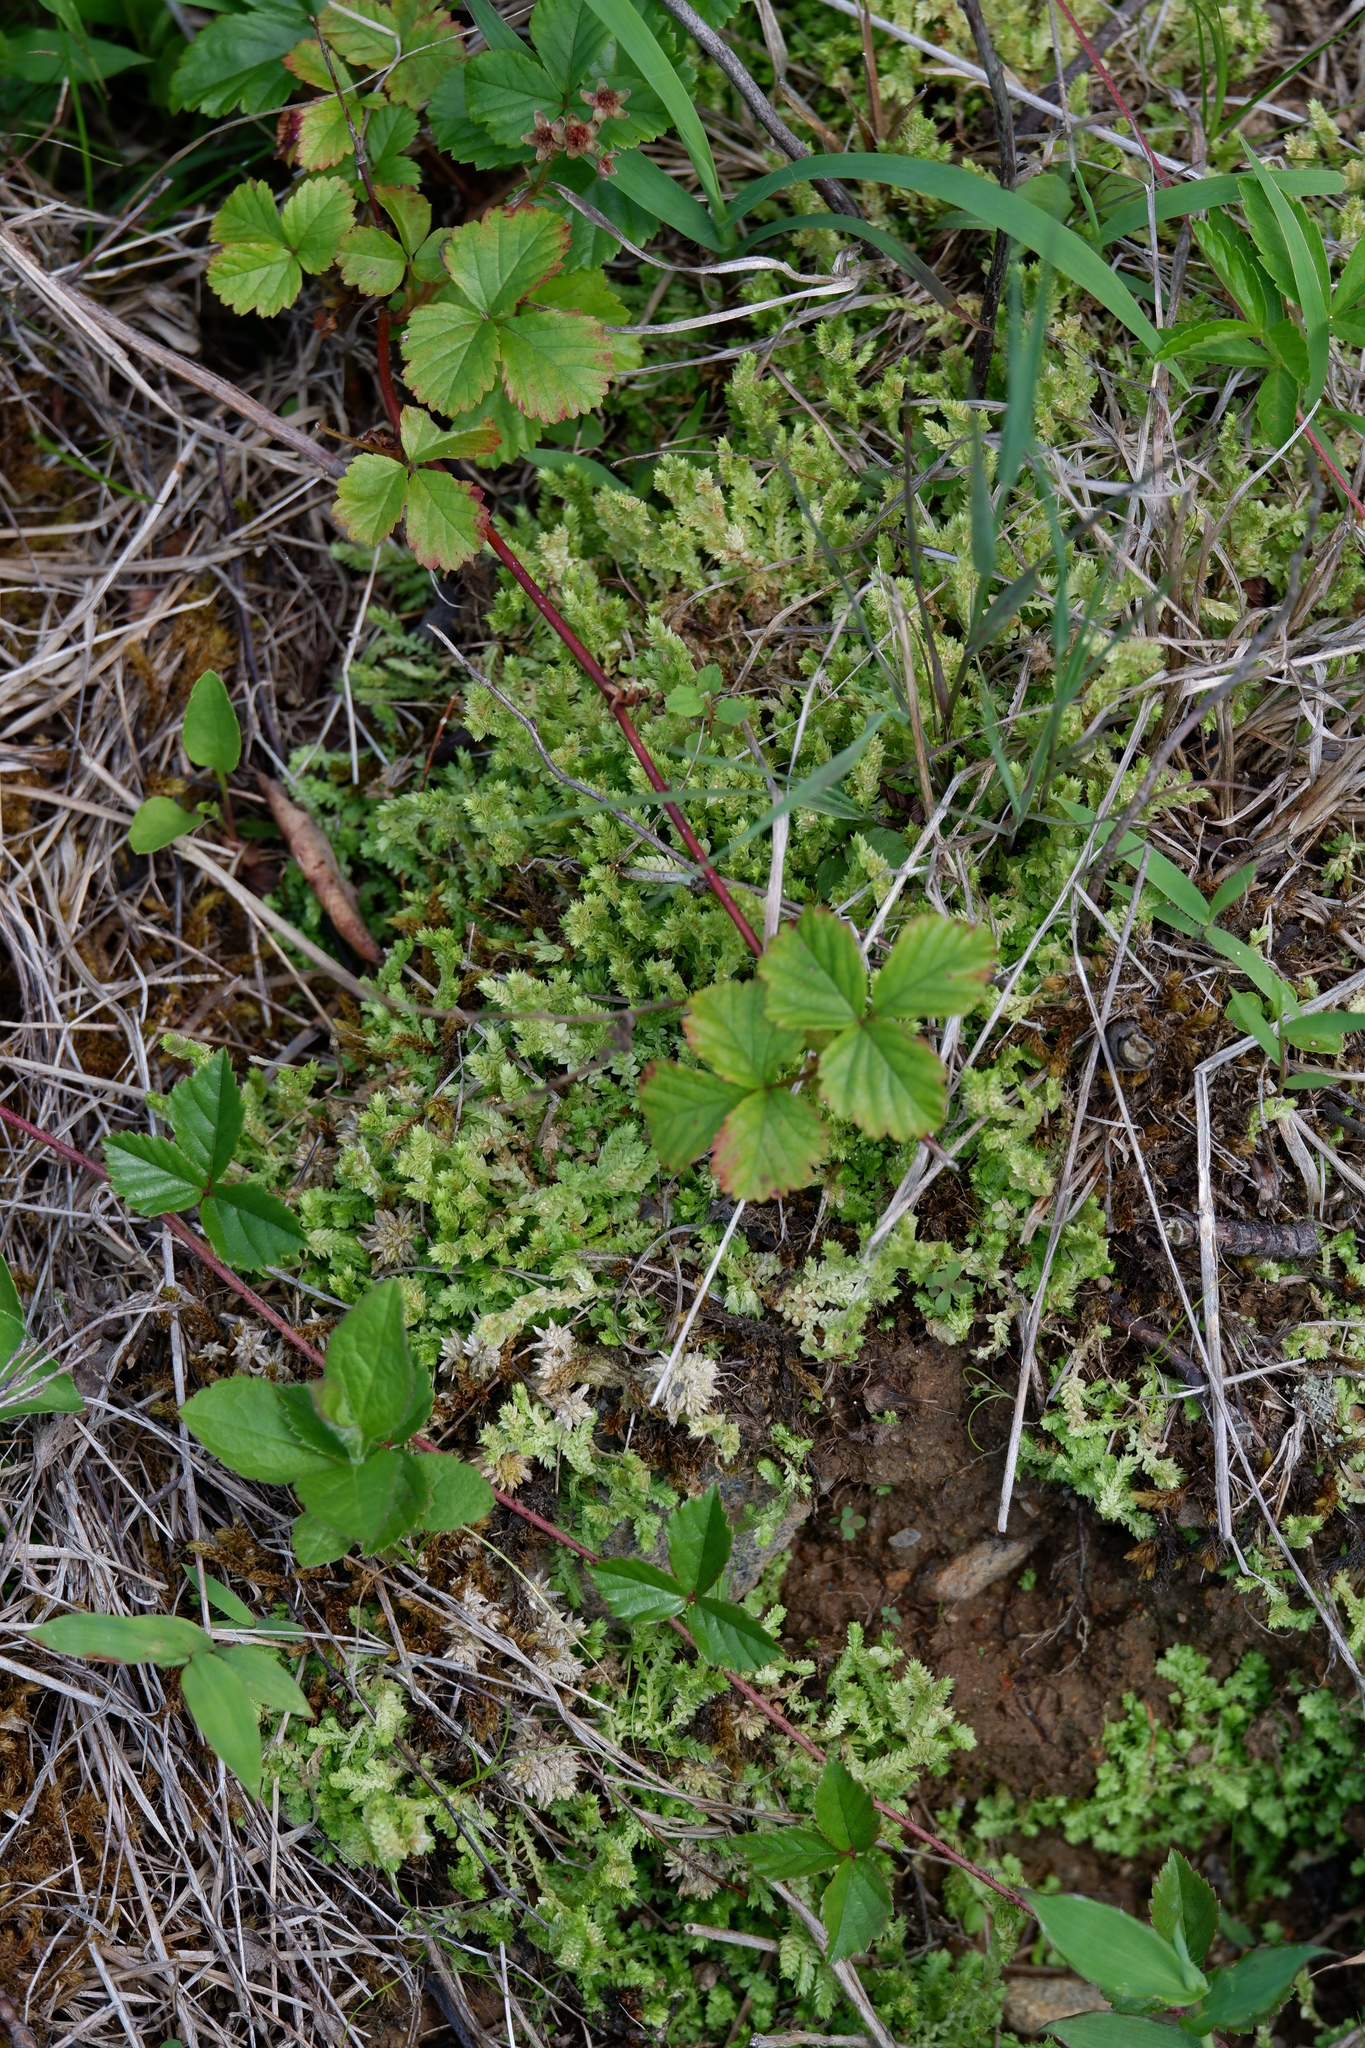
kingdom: Plantae
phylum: Tracheophyta
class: Lycopodiopsida
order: Selaginellales
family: Selaginellaceae
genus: Selaginella
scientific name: Selaginella apoda
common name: Creeping spikemoss
